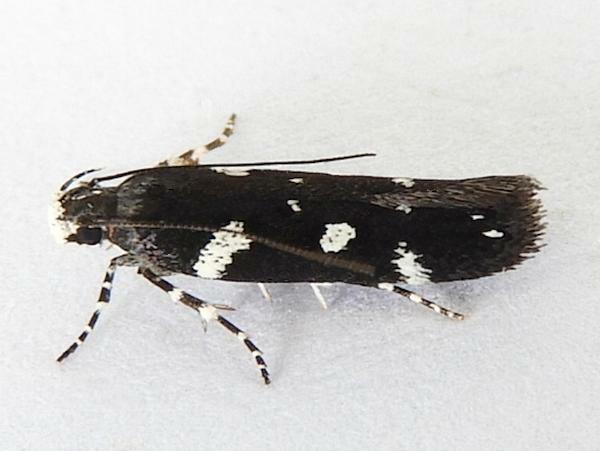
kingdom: Animalia
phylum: Arthropoda
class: Insecta
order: Lepidoptera
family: Gelechiidae
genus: Aroga
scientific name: Aroga compositella
